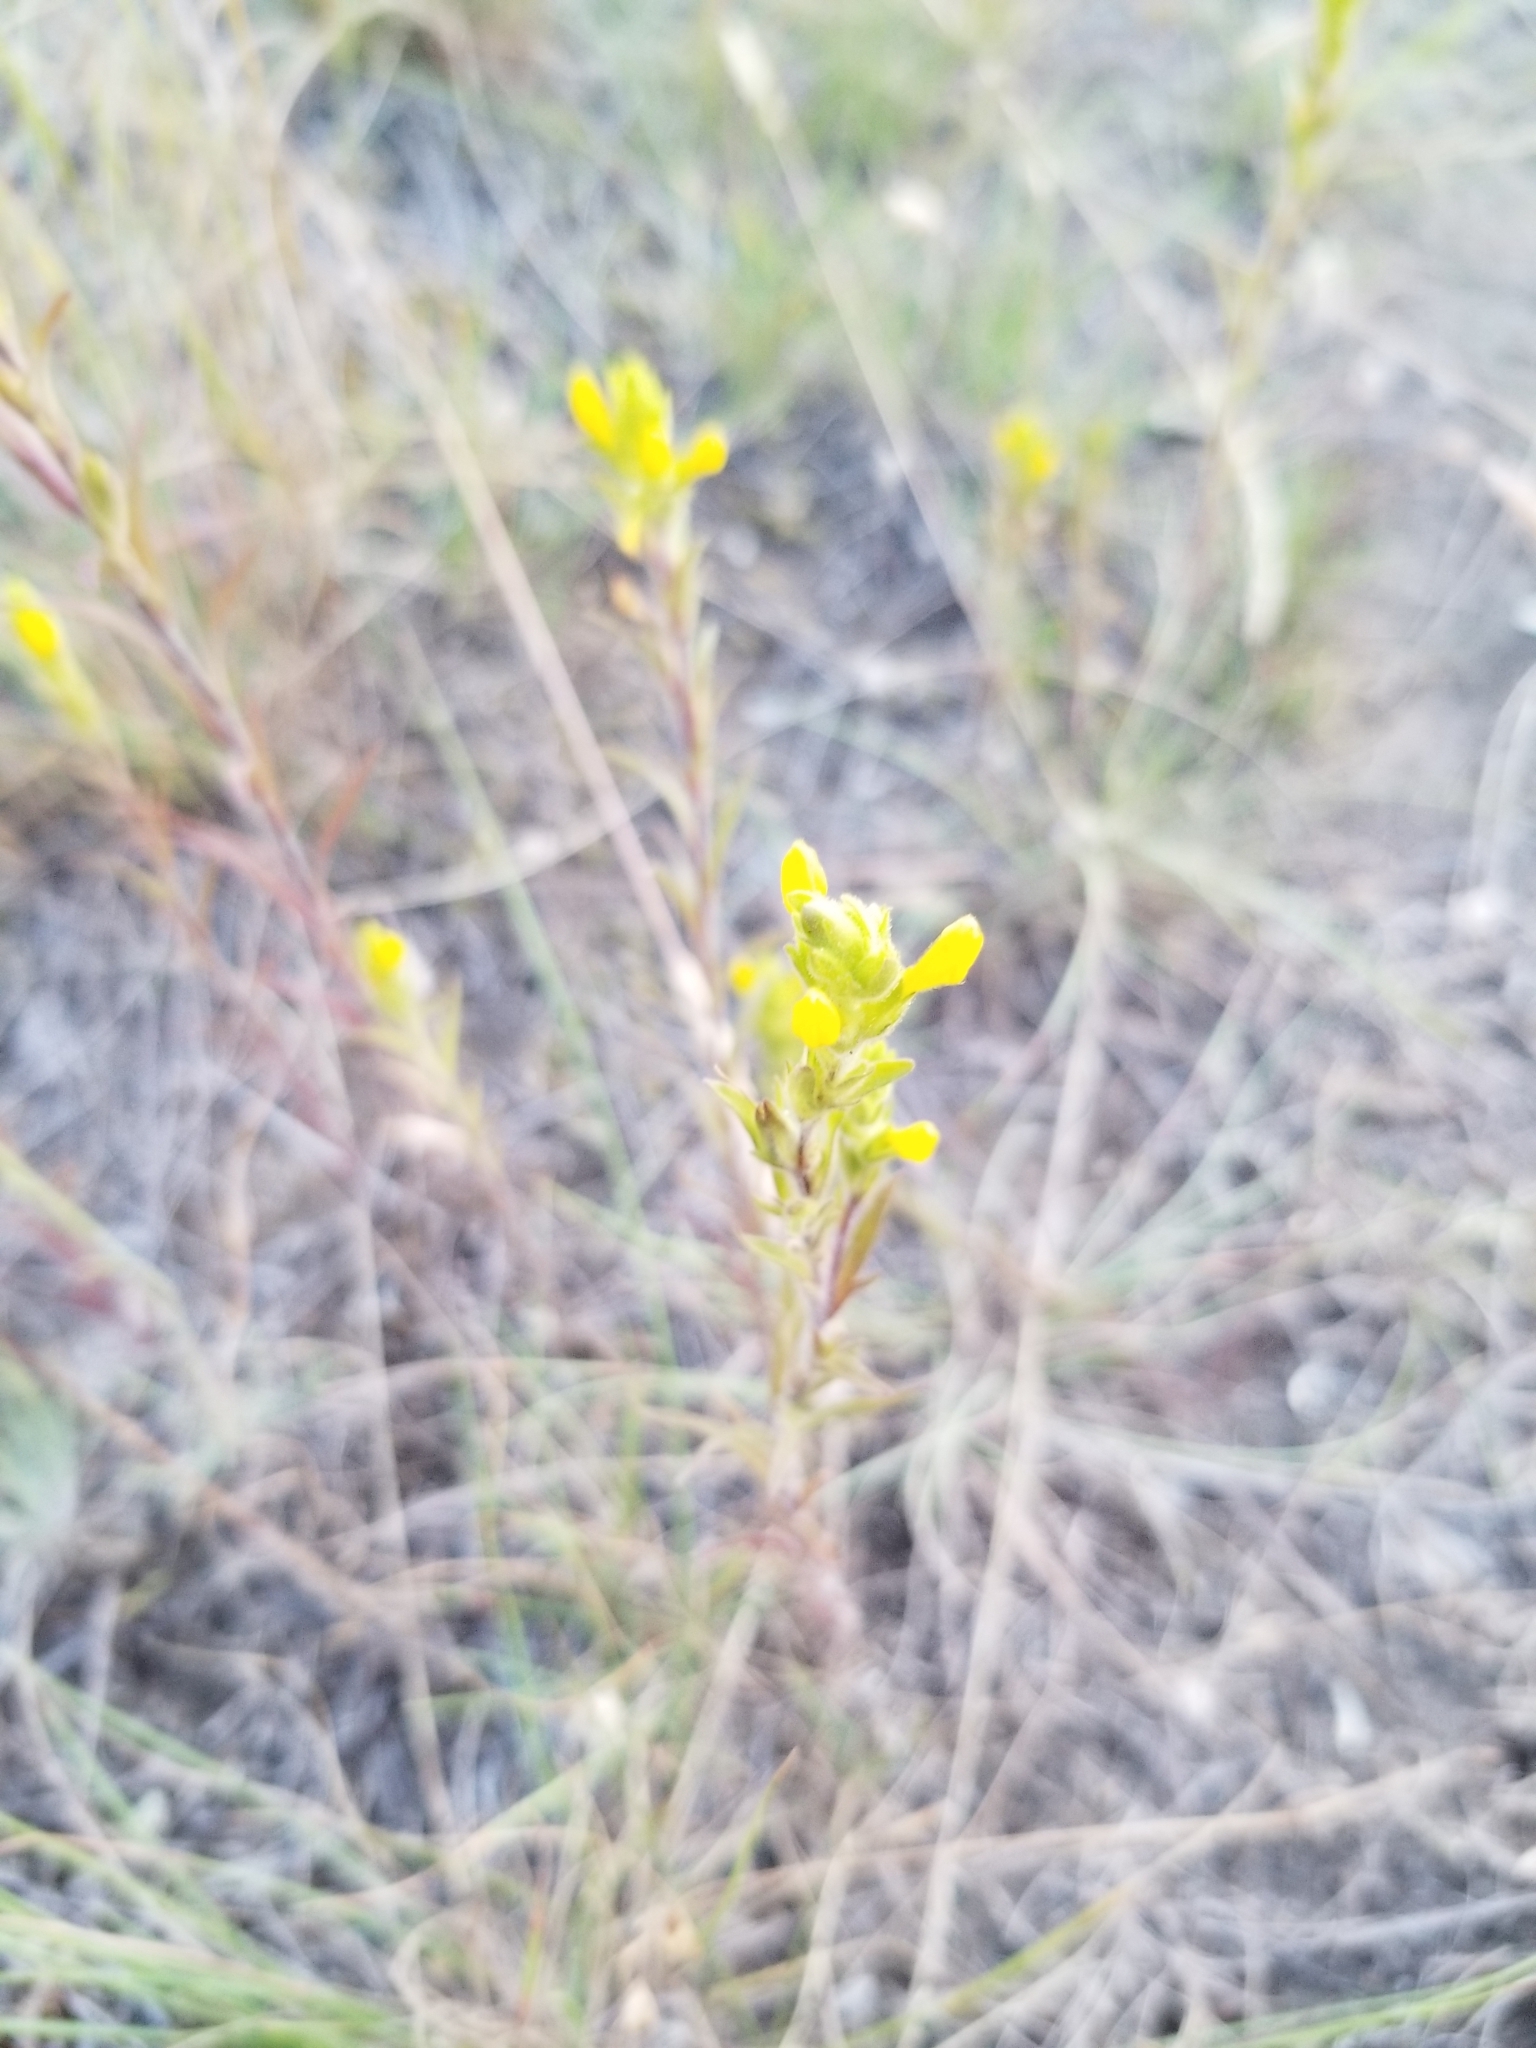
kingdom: Plantae
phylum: Tracheophyta
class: Magnoliopsida
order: Lamiales
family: Orobanchaceae
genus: Orthocarpus
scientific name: Orthocarpus luteus
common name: Golden-tongue owl's-clover
